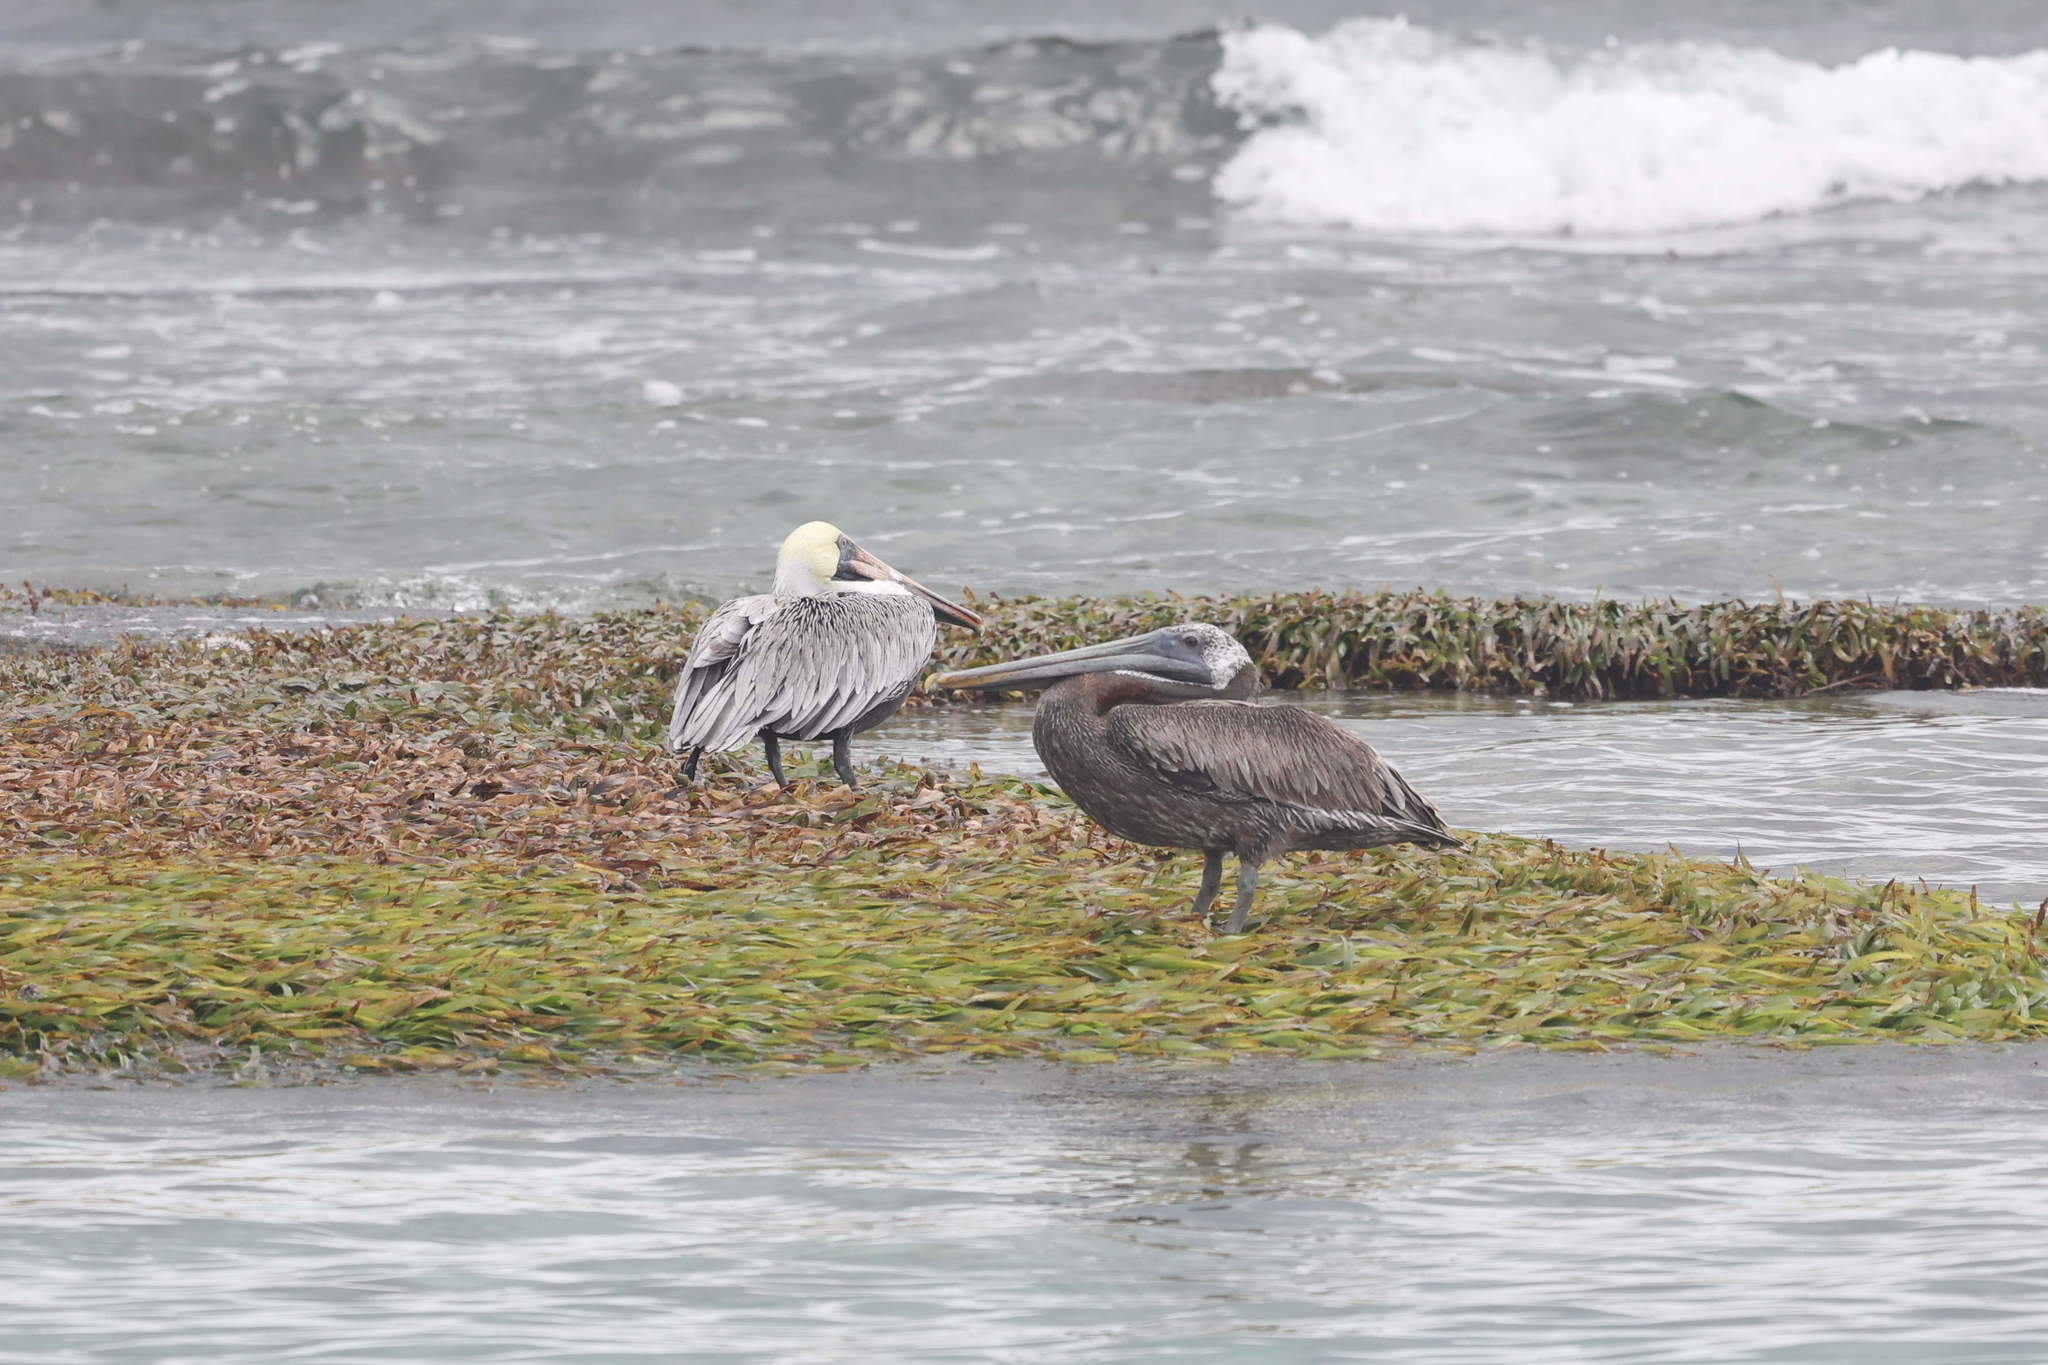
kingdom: Animalia
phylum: Chordata
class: Aves
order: Pelecaniformes
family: Pelecanidae
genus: Pelecanus
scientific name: Pelecanus occidentalis
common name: Brown pelican
